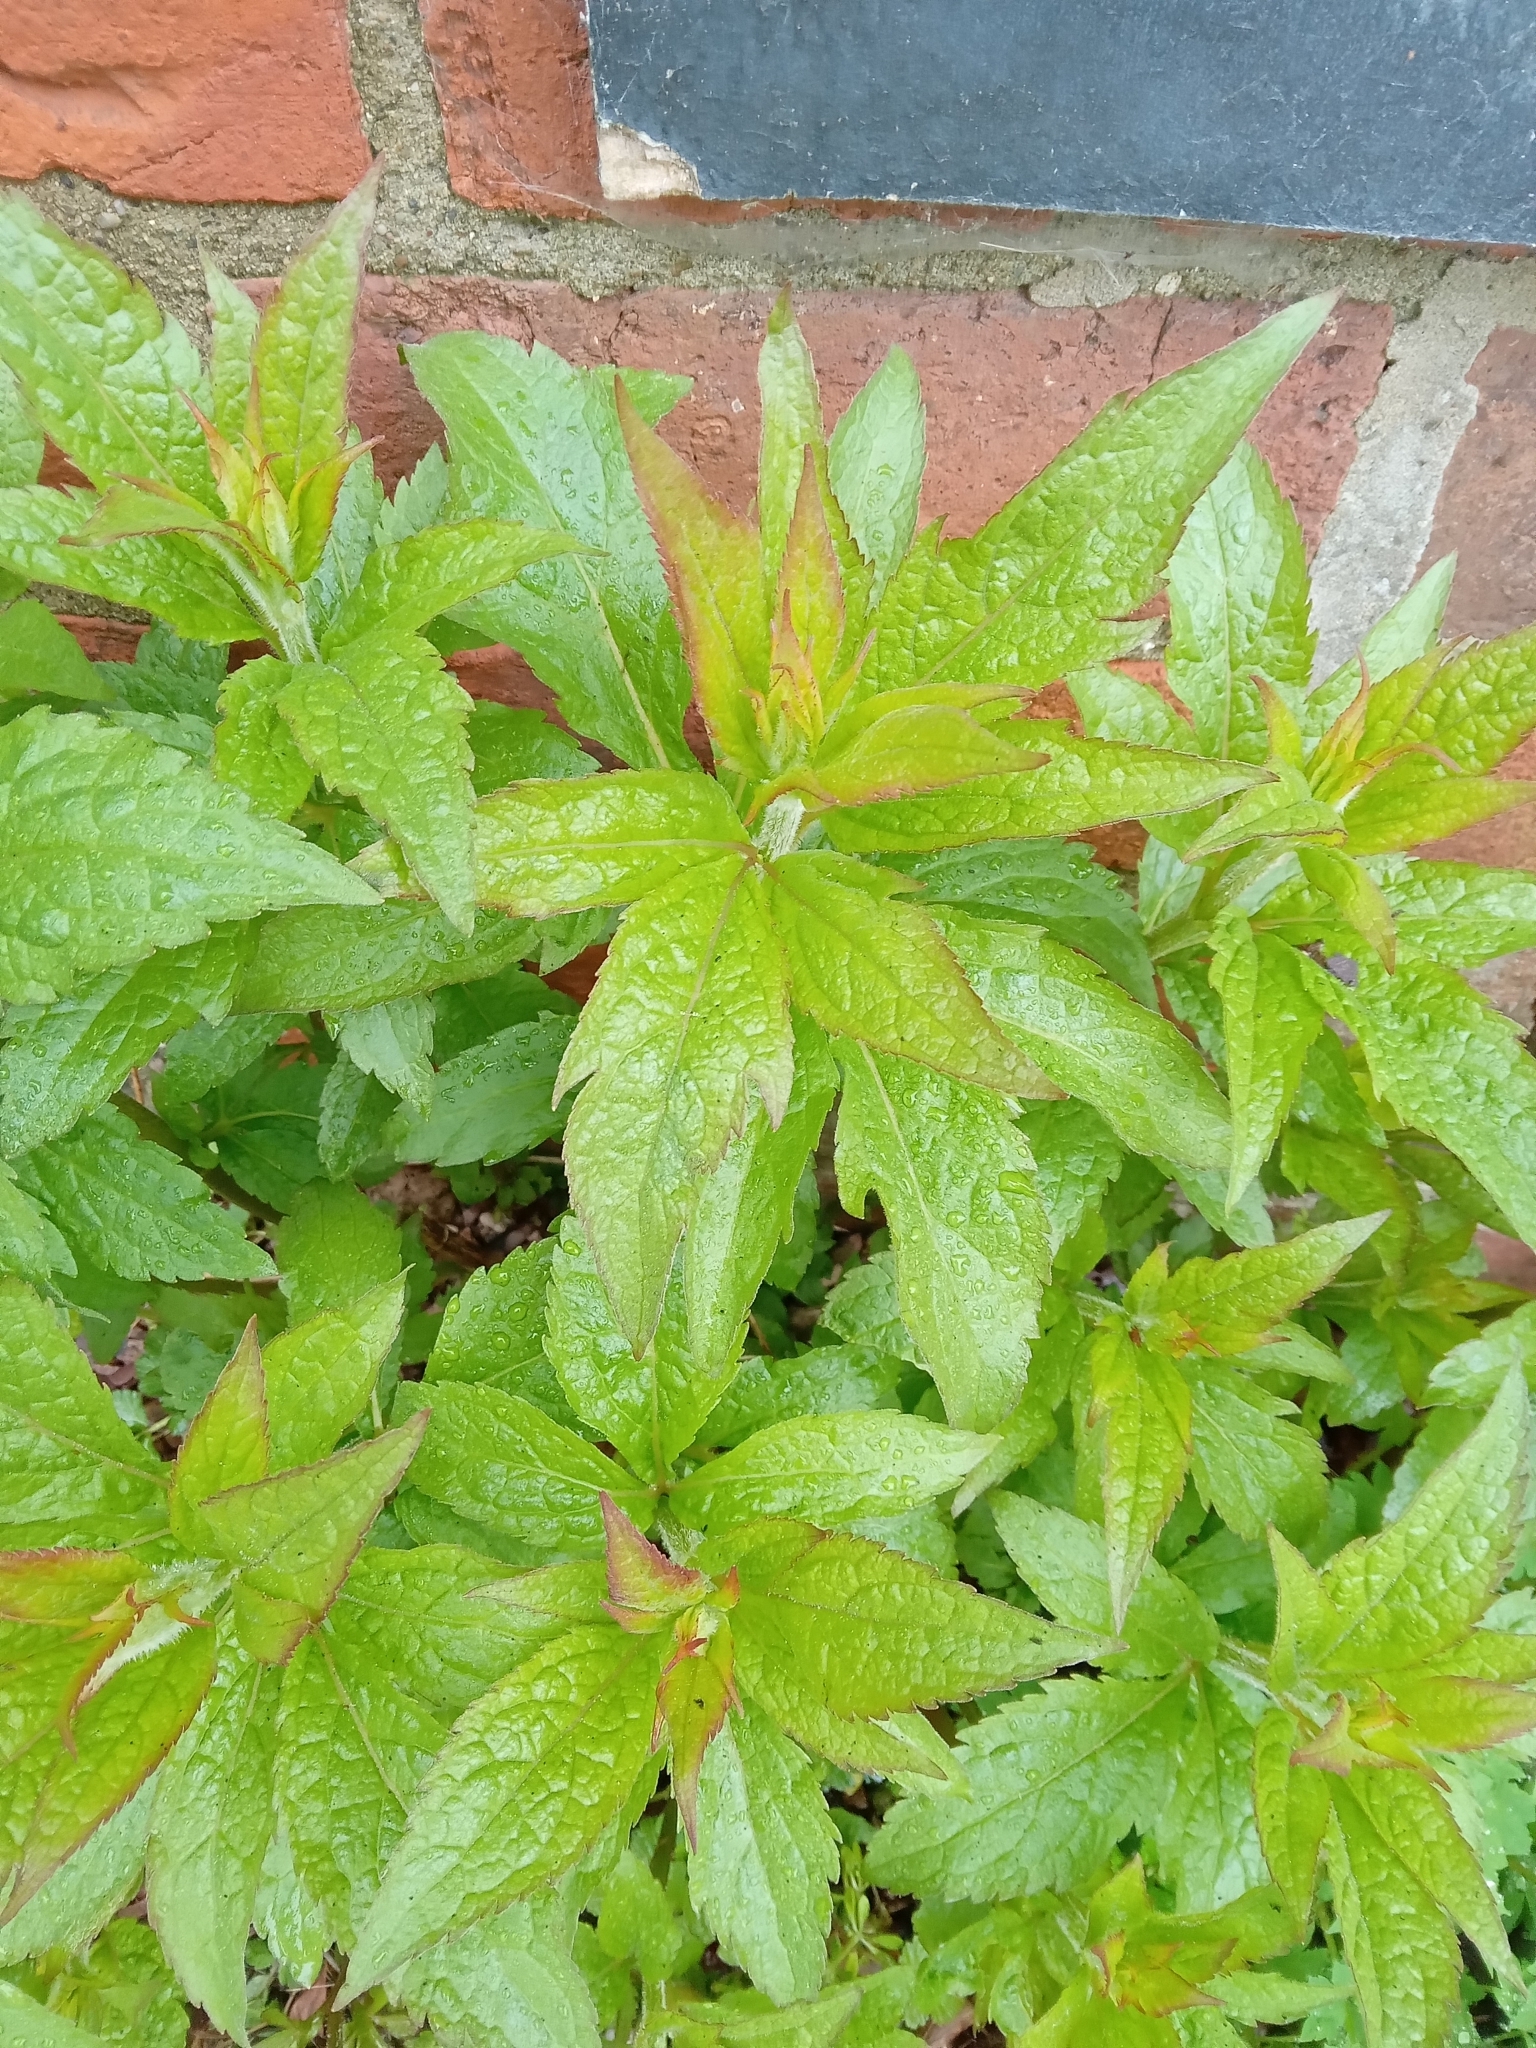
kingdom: Plantae
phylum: Tracheophyta
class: Magnoliopsida
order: Asterales
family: Asteraceae
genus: Eupatorium
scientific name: Eupatorium cannabinum
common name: Hemp-agrimony
